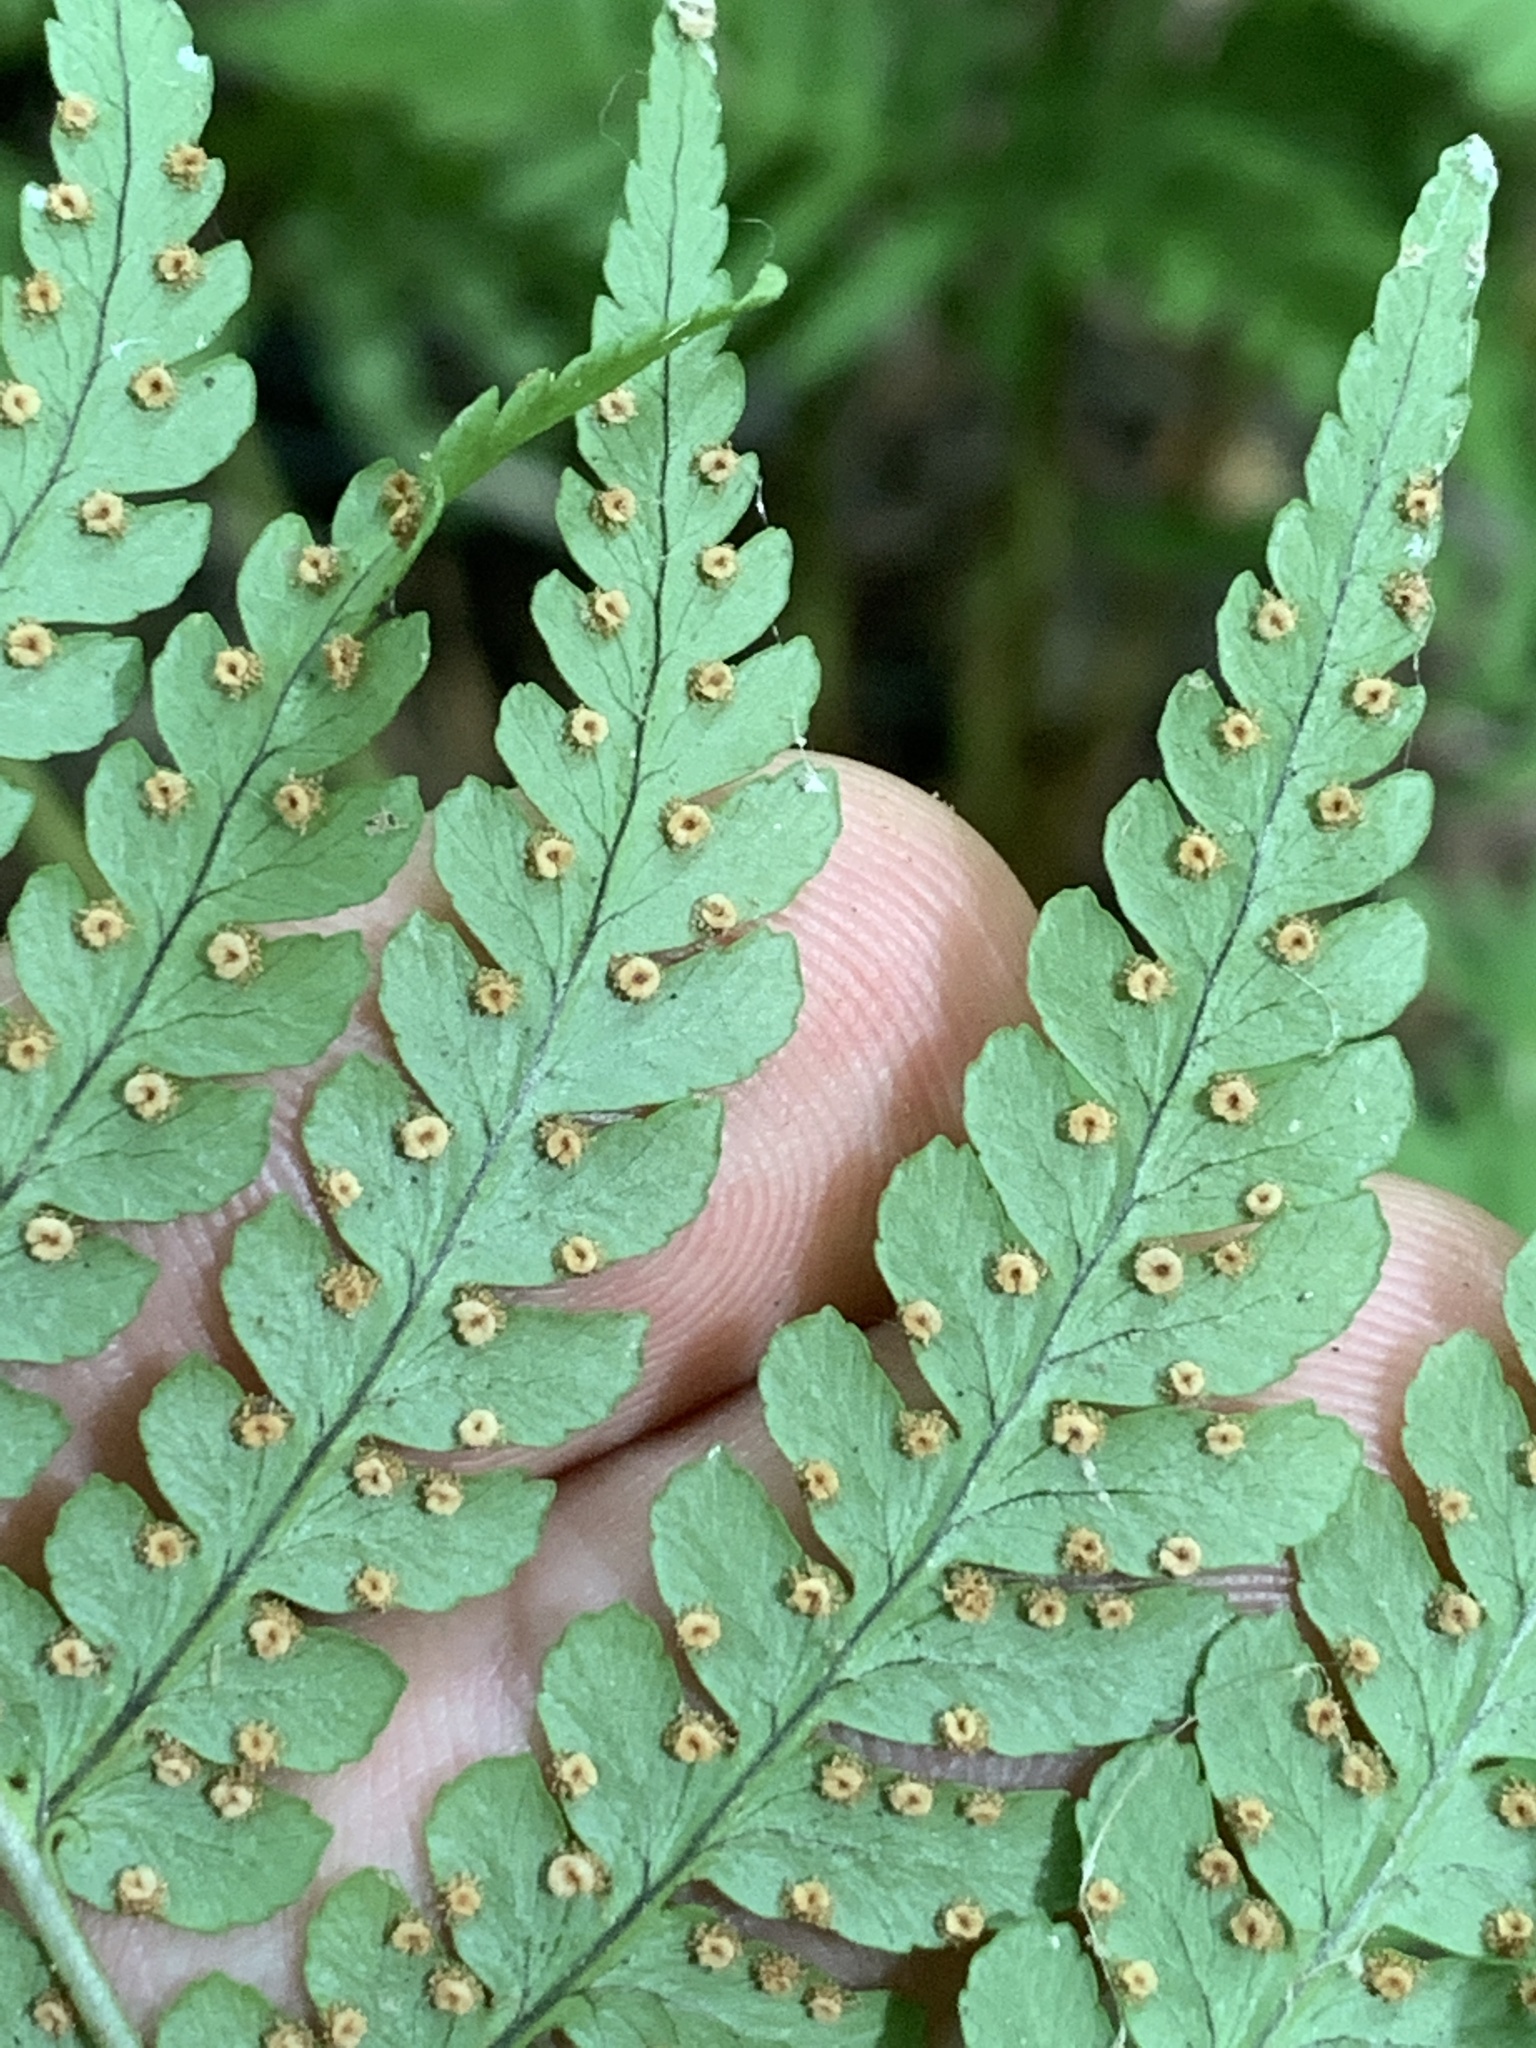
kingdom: Plantae
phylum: Tracheophyta
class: Polypodiopsida
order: Polypodiales
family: Dryopteridaceae
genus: Dryopteris
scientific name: Dryopteris marginalis
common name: Marginal wood fern
